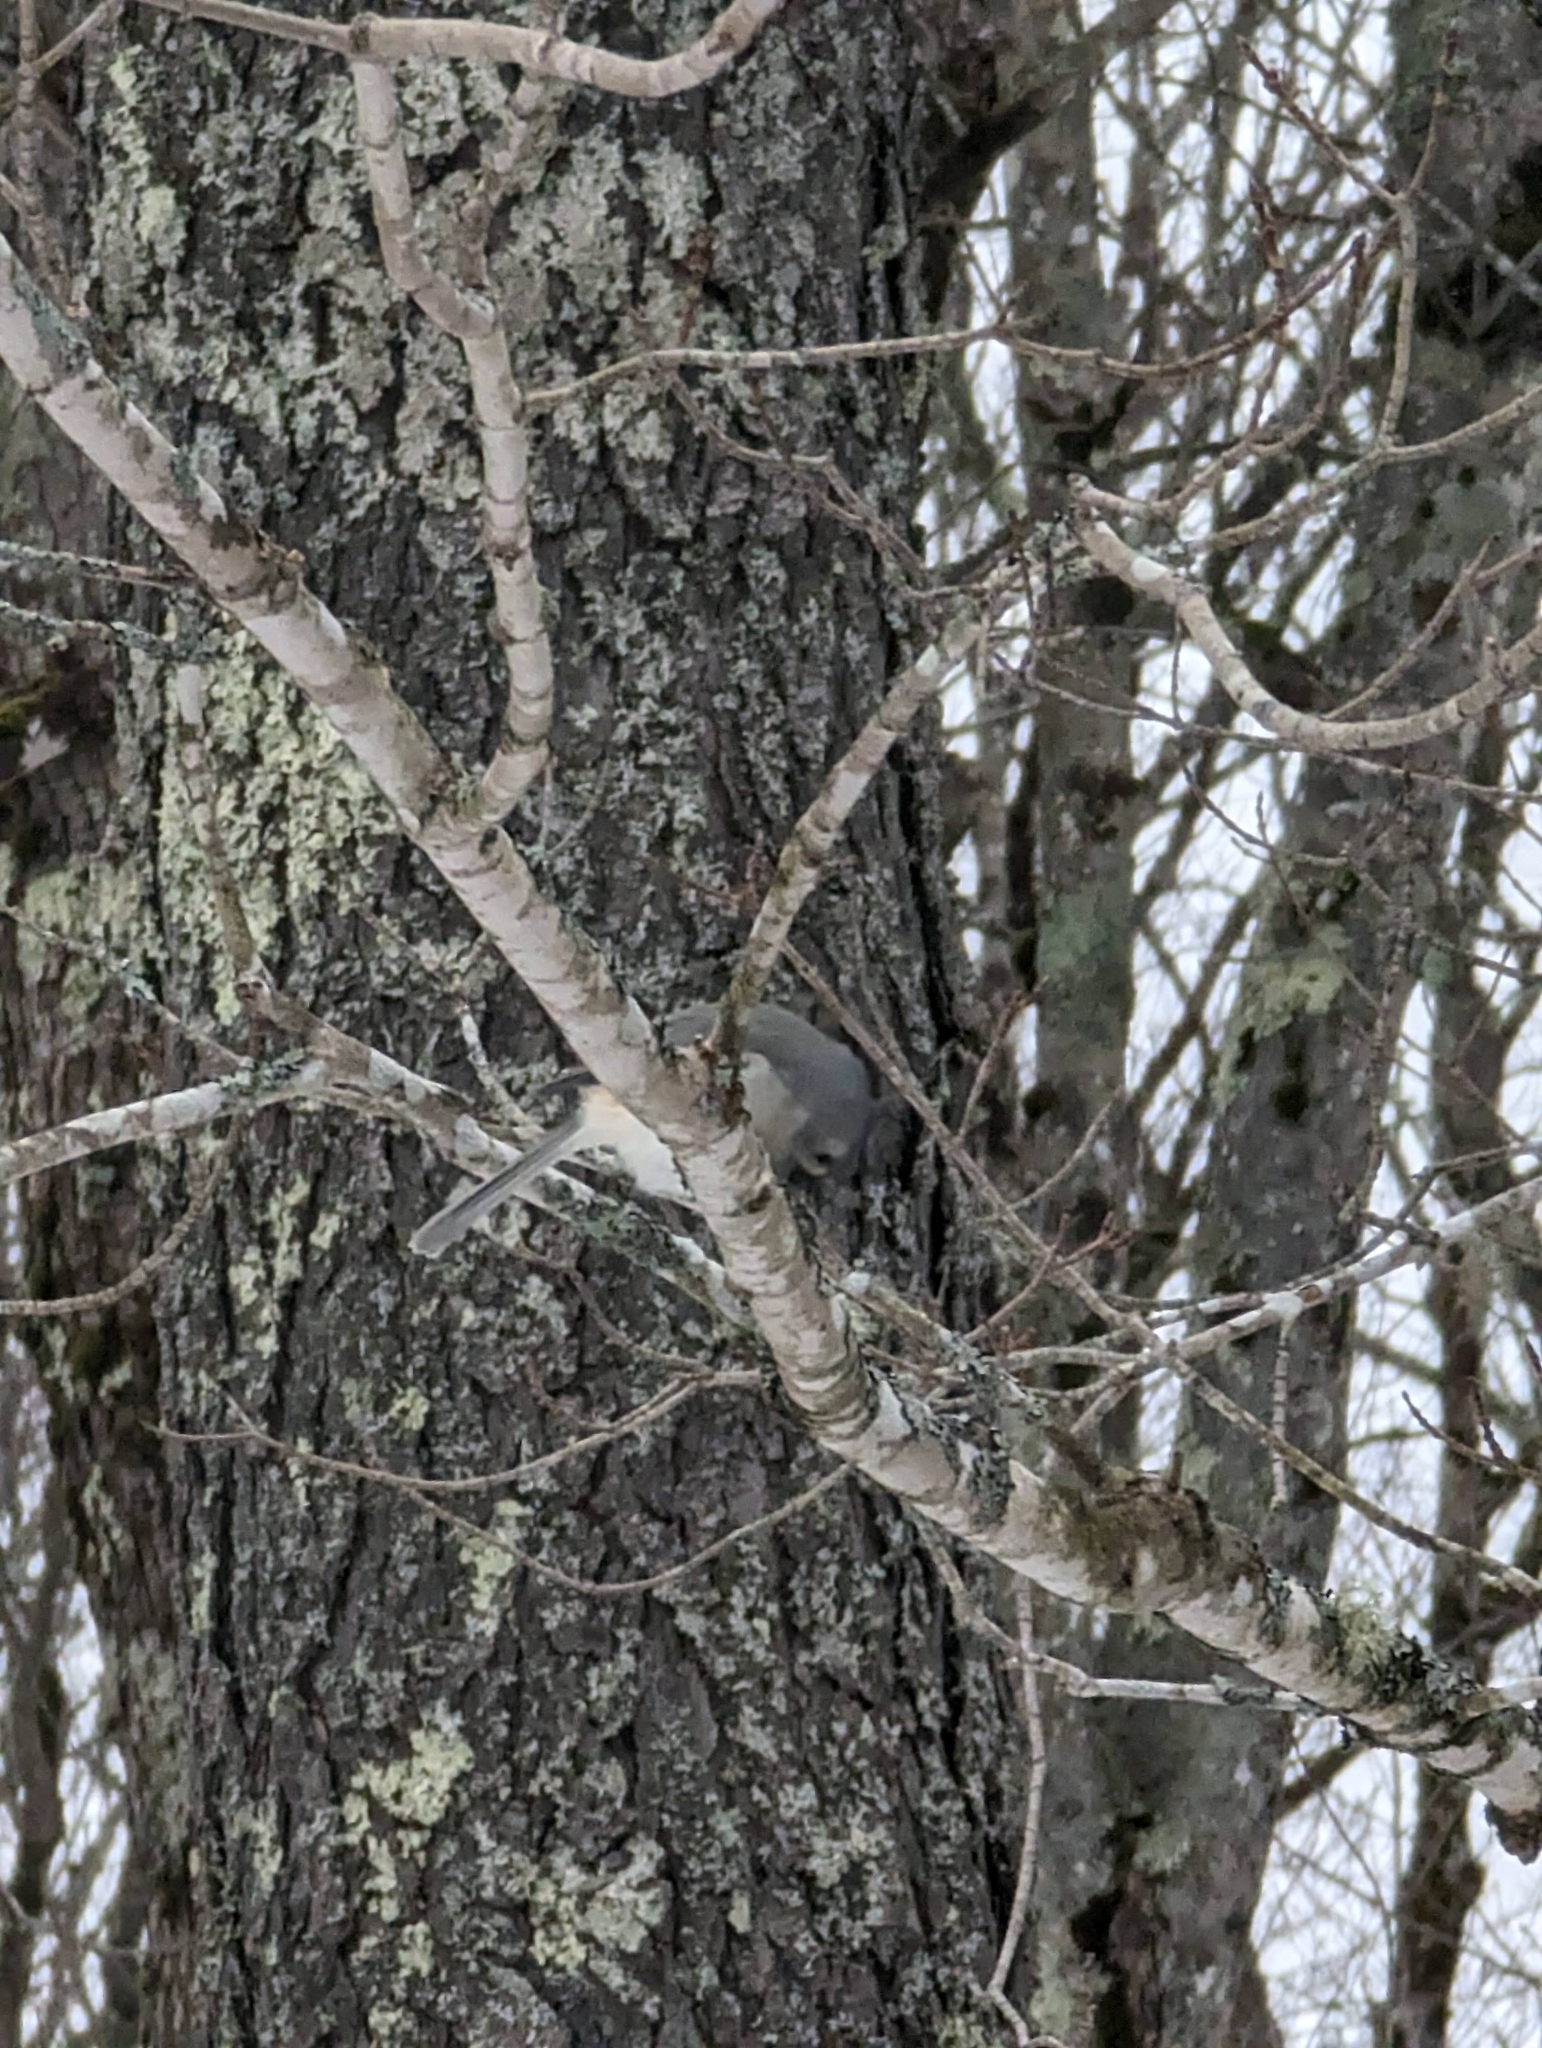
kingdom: Animalia
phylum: Chordata
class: Aves
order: Passeriformes
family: Paridae
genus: Baeolophus
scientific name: Baeolophus bicolor
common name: Tufted titmouse
